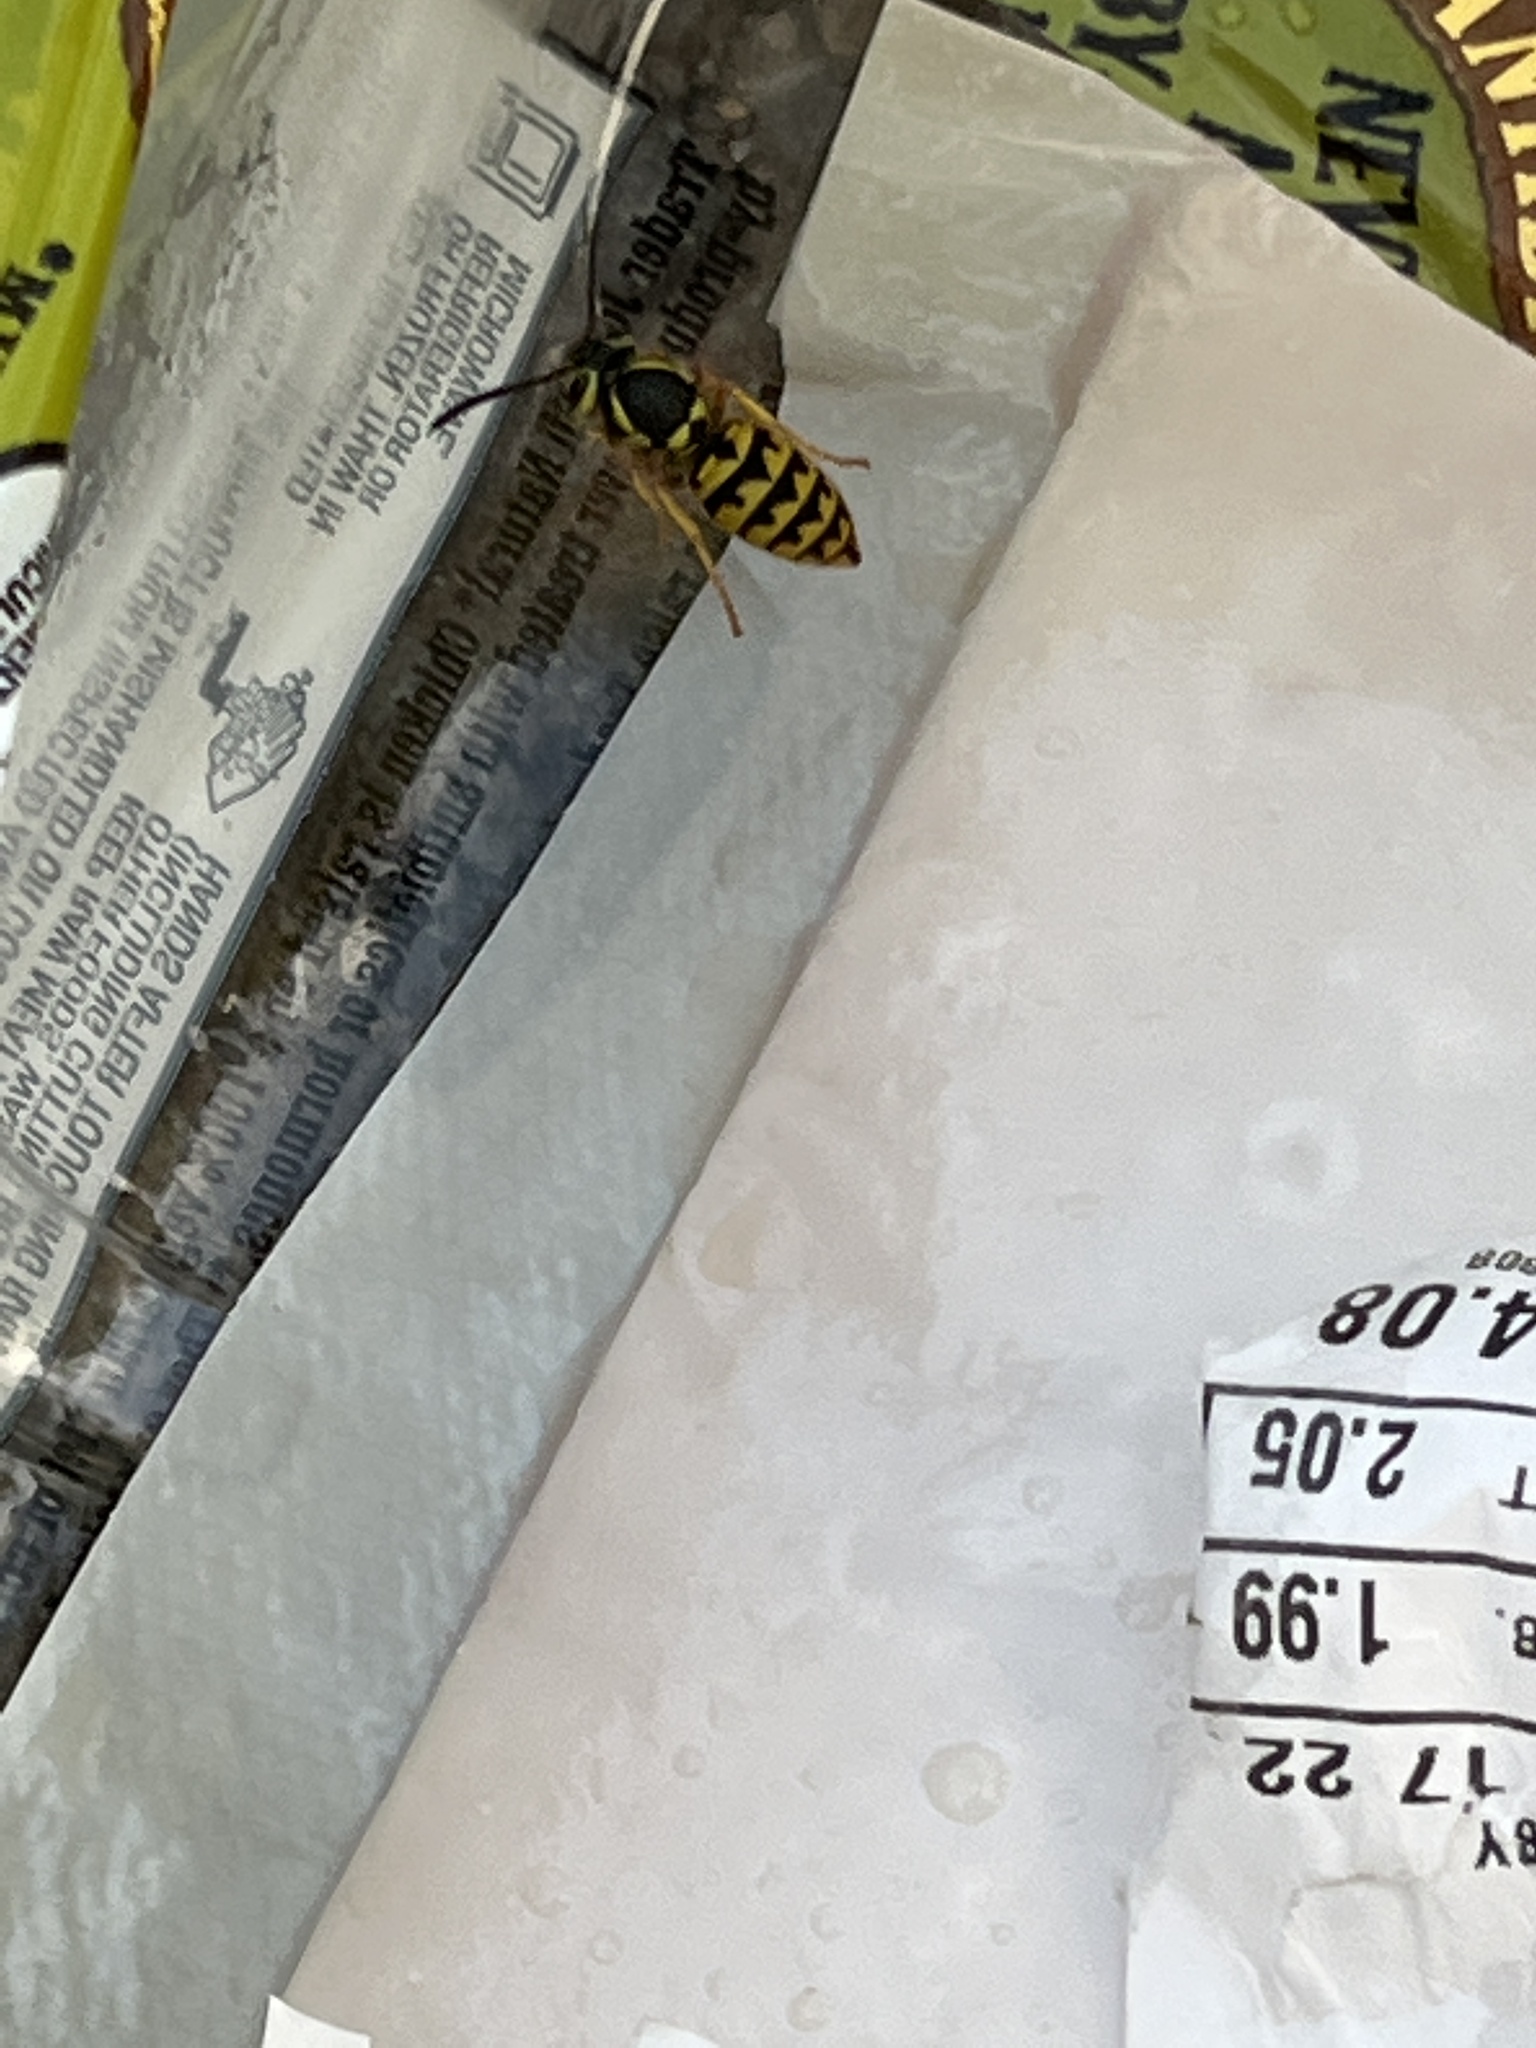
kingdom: Animalia
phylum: Arthropoda
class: Insecta
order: Hymenoptera
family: Vespidae
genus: Vespula
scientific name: Vespula pensylvanica
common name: Western yellowjacket
